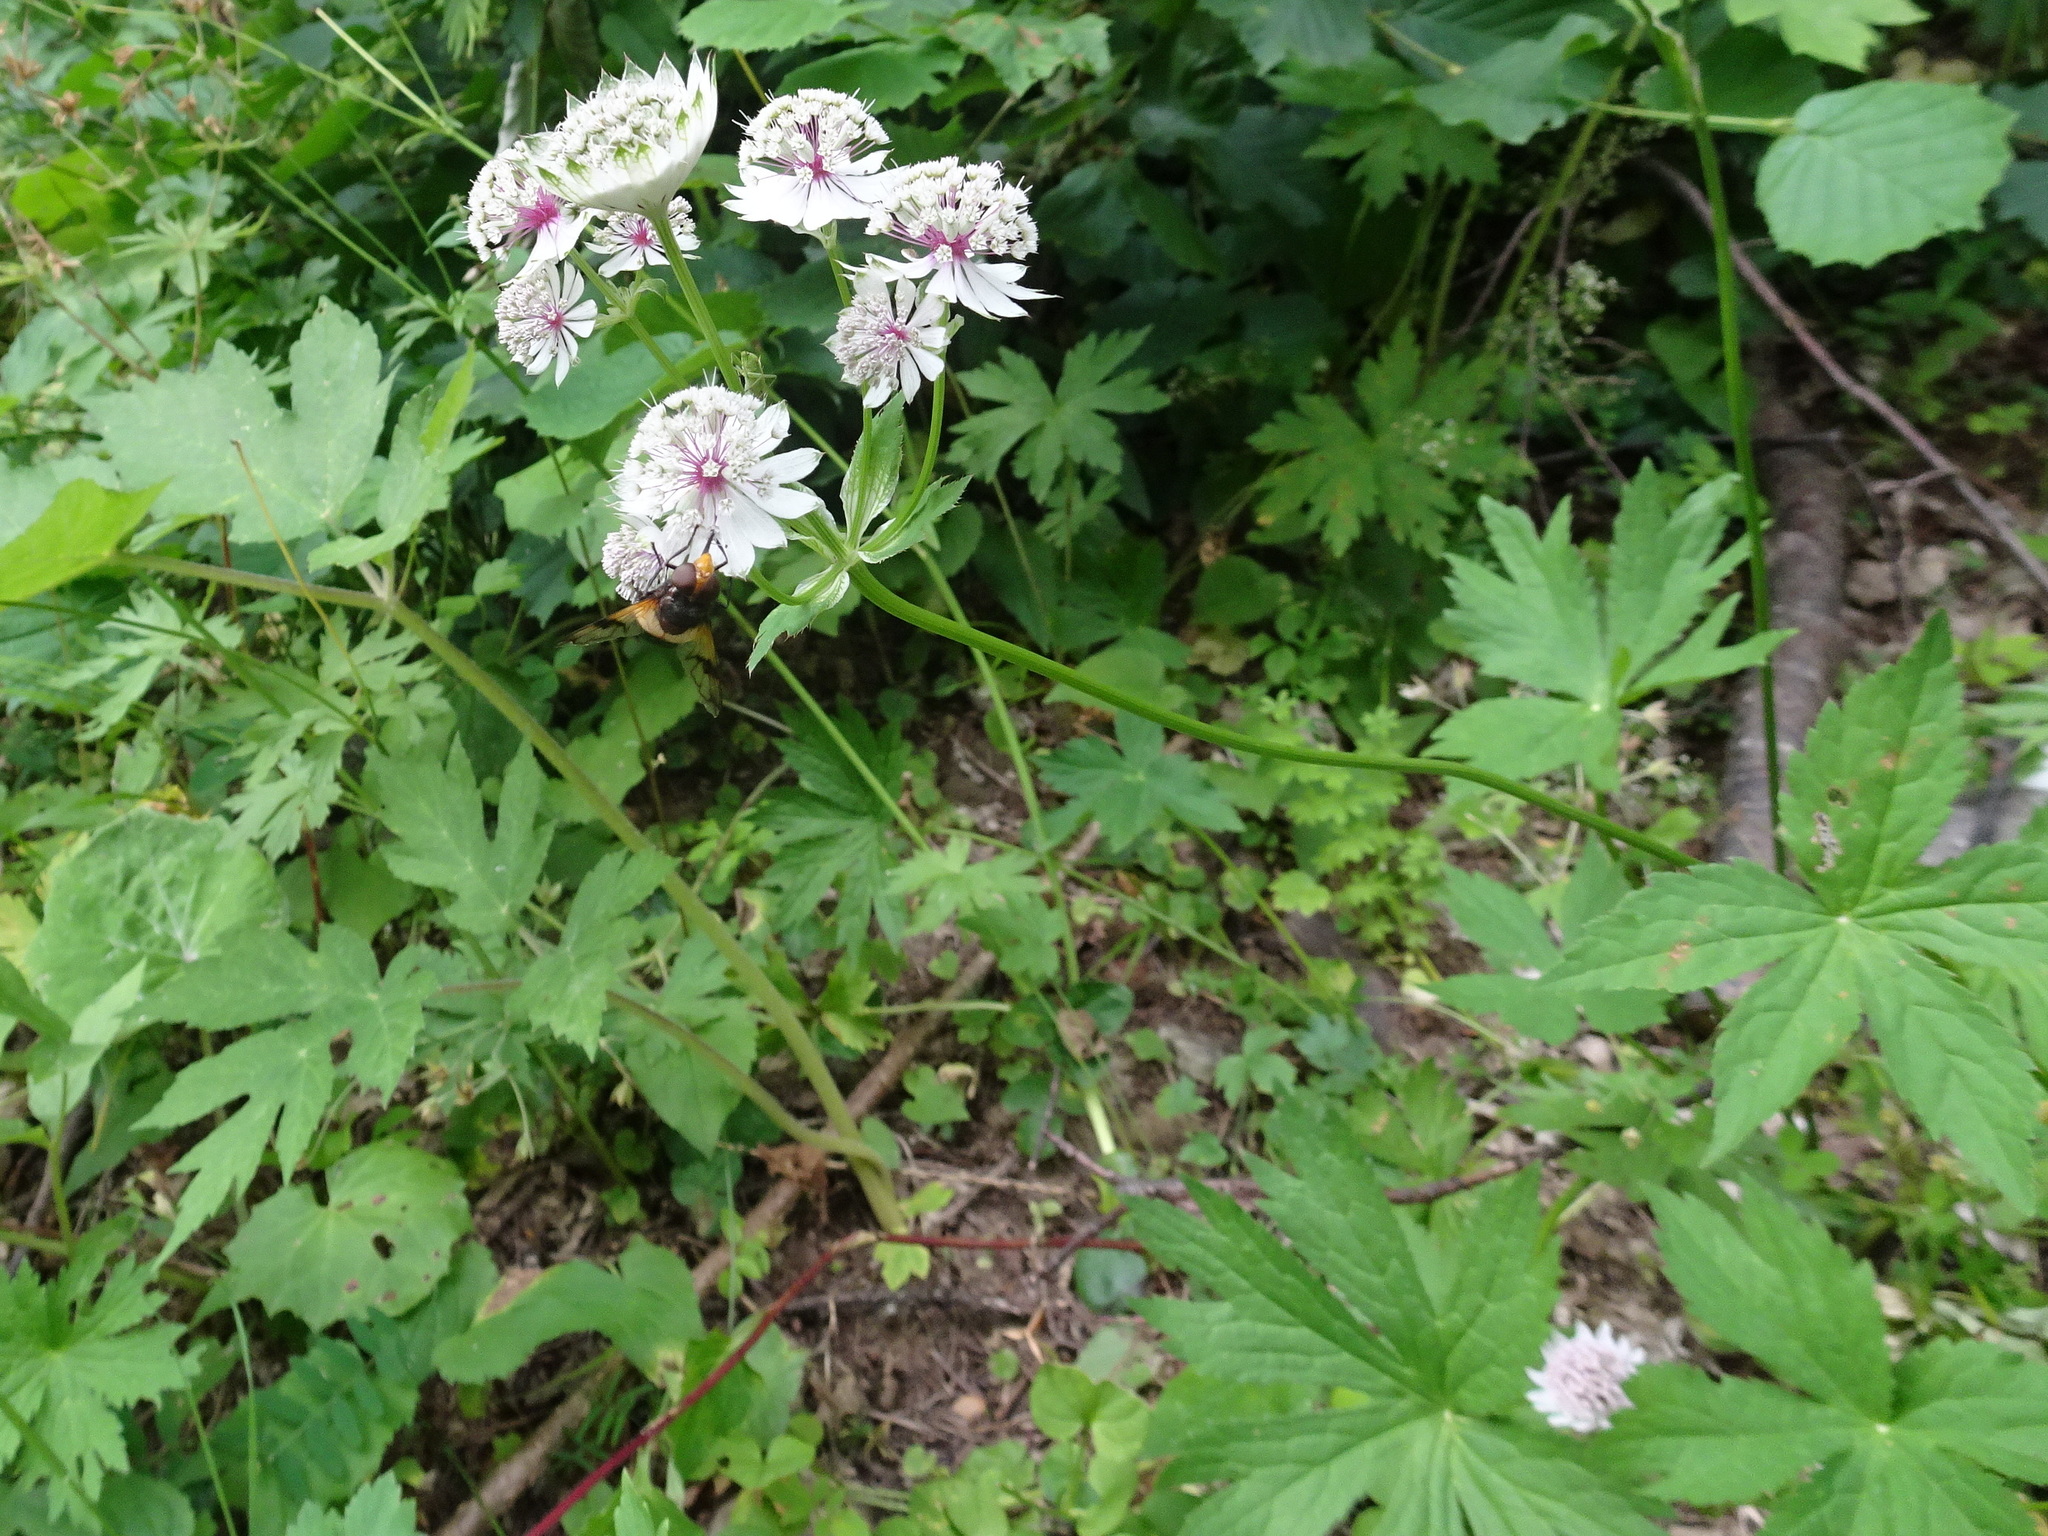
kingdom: Plantae
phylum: Tracheophyta
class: Magnoliopsida
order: Apiales
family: Apiaceae
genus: Astrantia
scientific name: Astrantia major
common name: Greater masterwort
